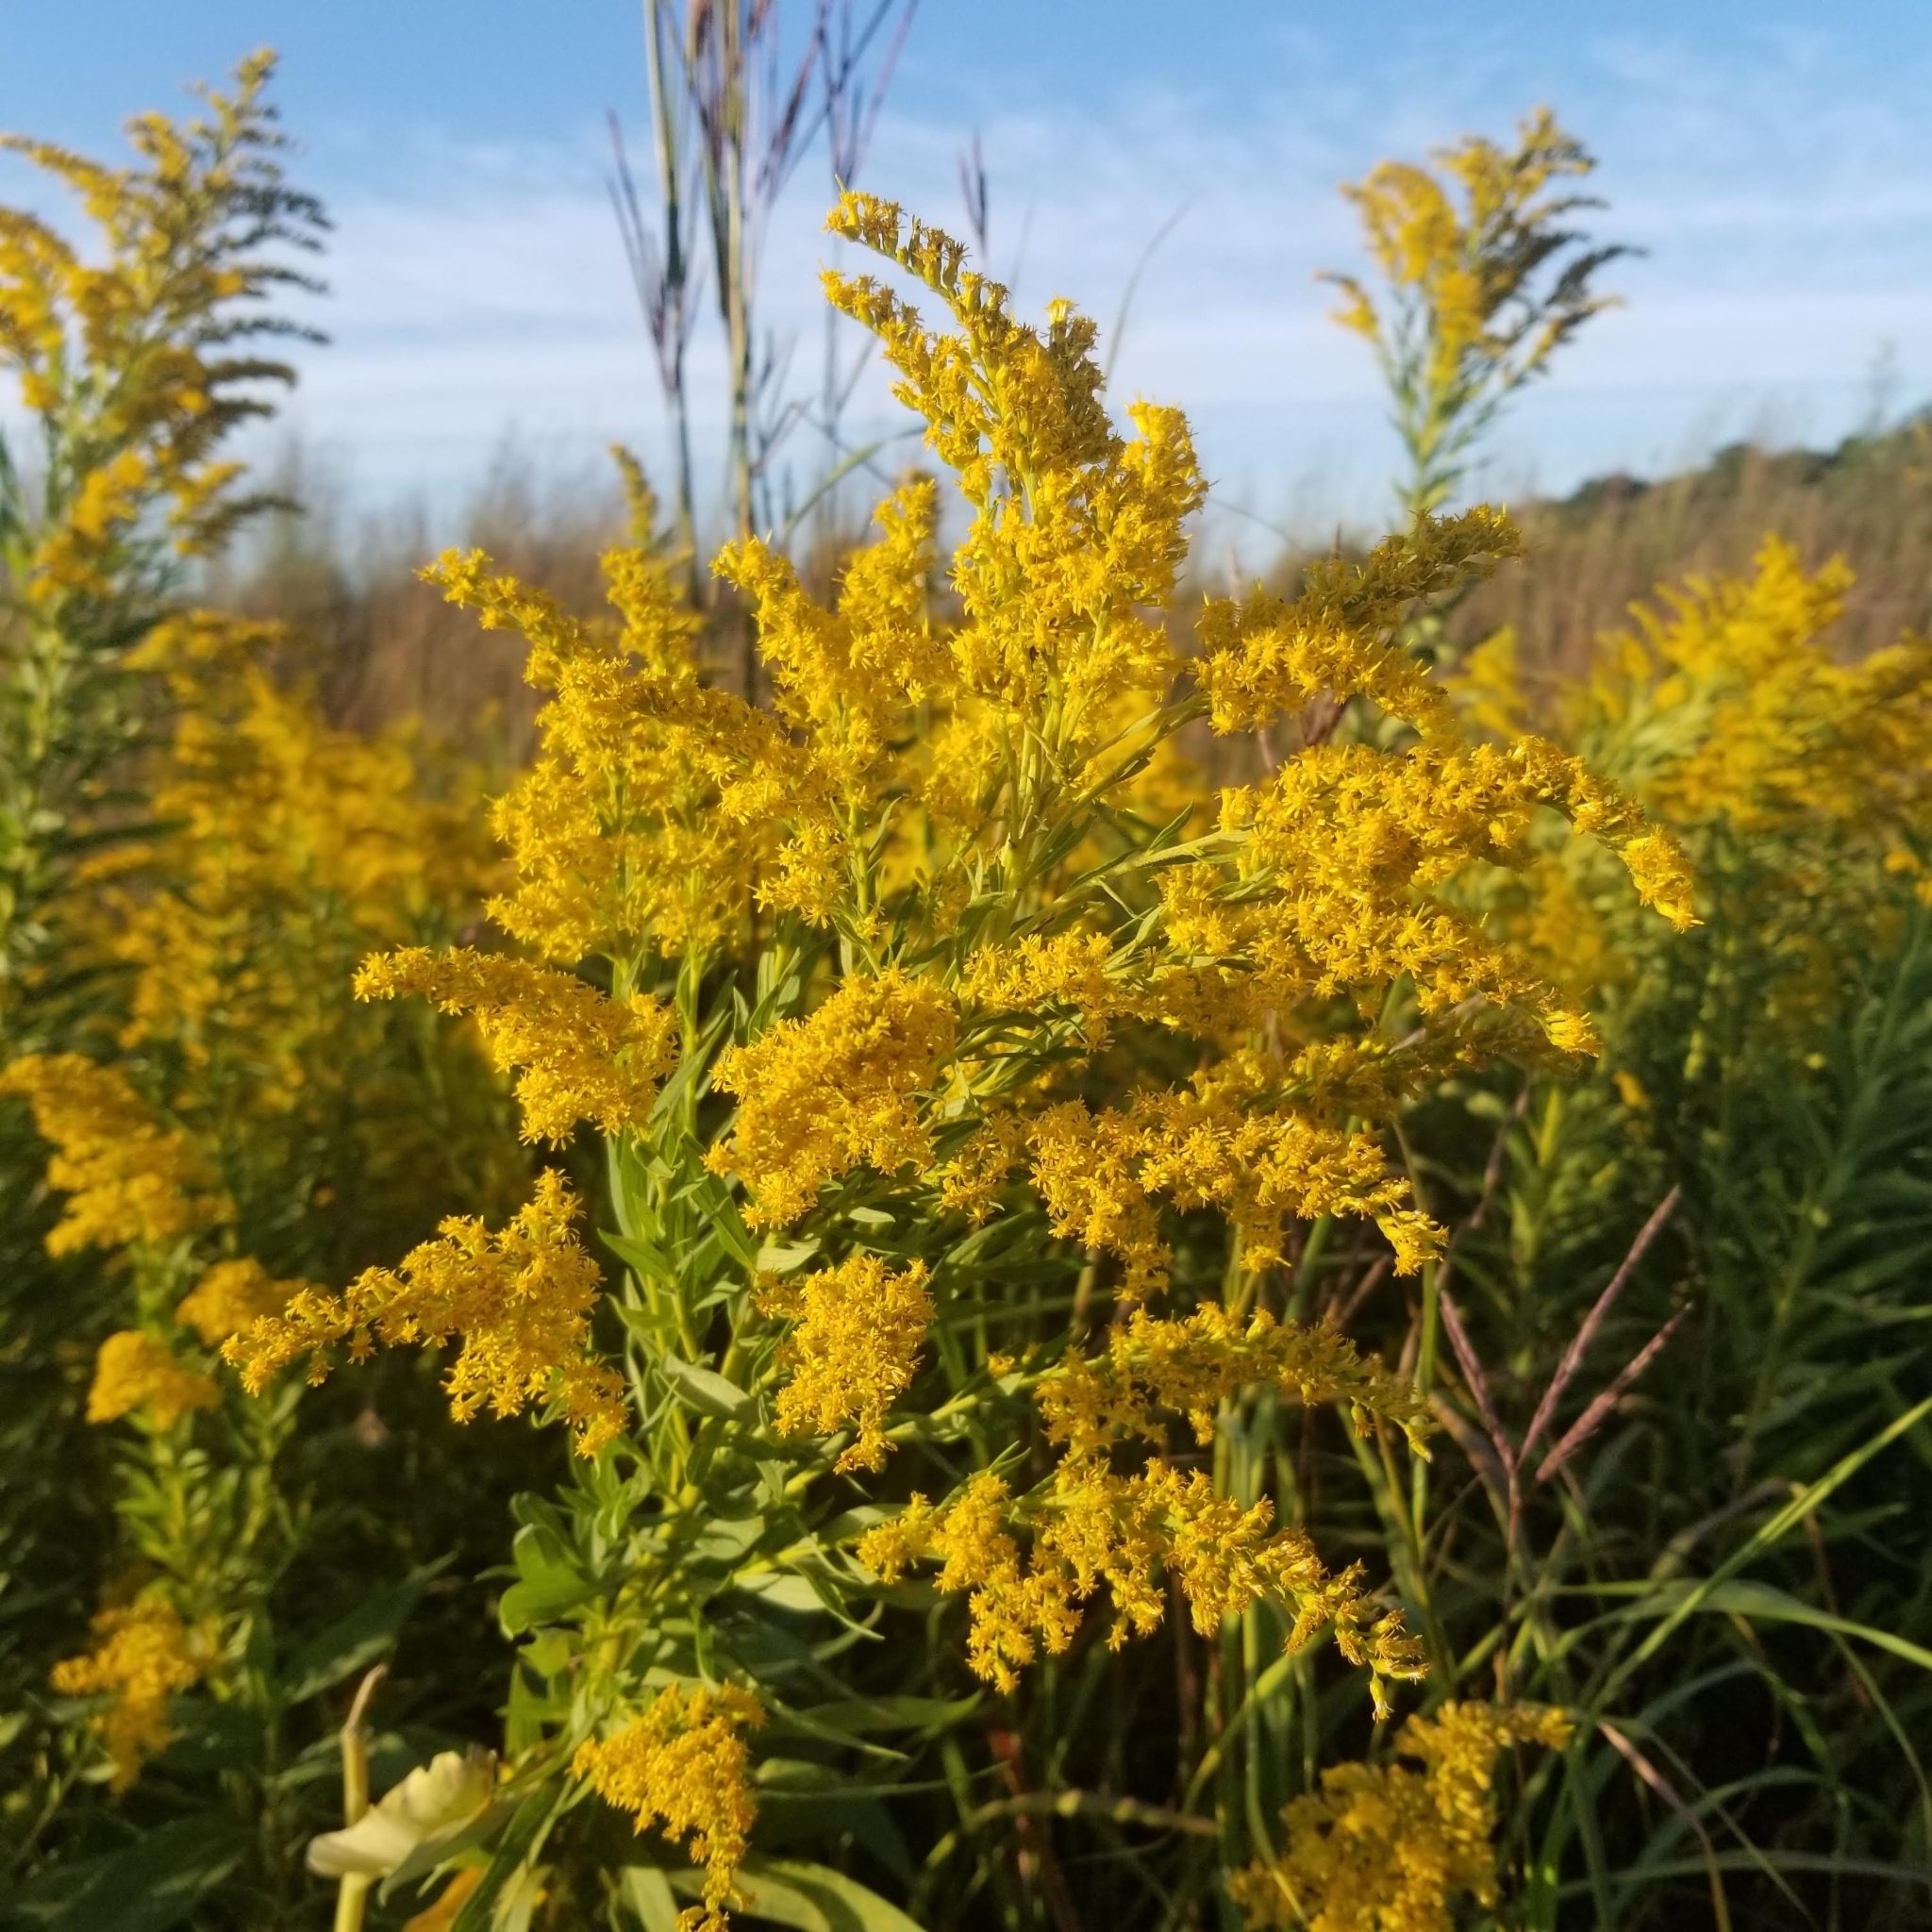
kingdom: Plantae
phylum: Tracheophyta
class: Magnoliopsida
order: Asterales
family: Asteraceae
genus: Solidago
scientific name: Solidago canadensis
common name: Canada goldenrod
